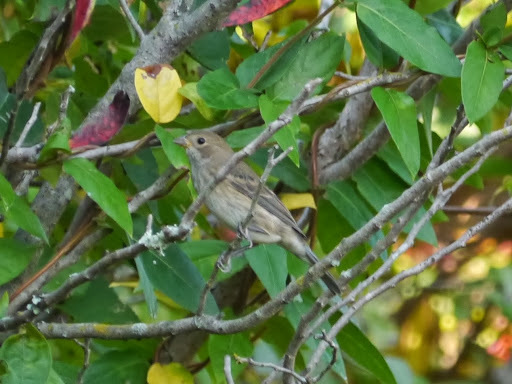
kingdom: Animalia
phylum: Chordata
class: Aves
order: Passeriformes
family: Cardinalidae
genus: Passerina
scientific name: Passerina cyanea
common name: Indigo bunting
